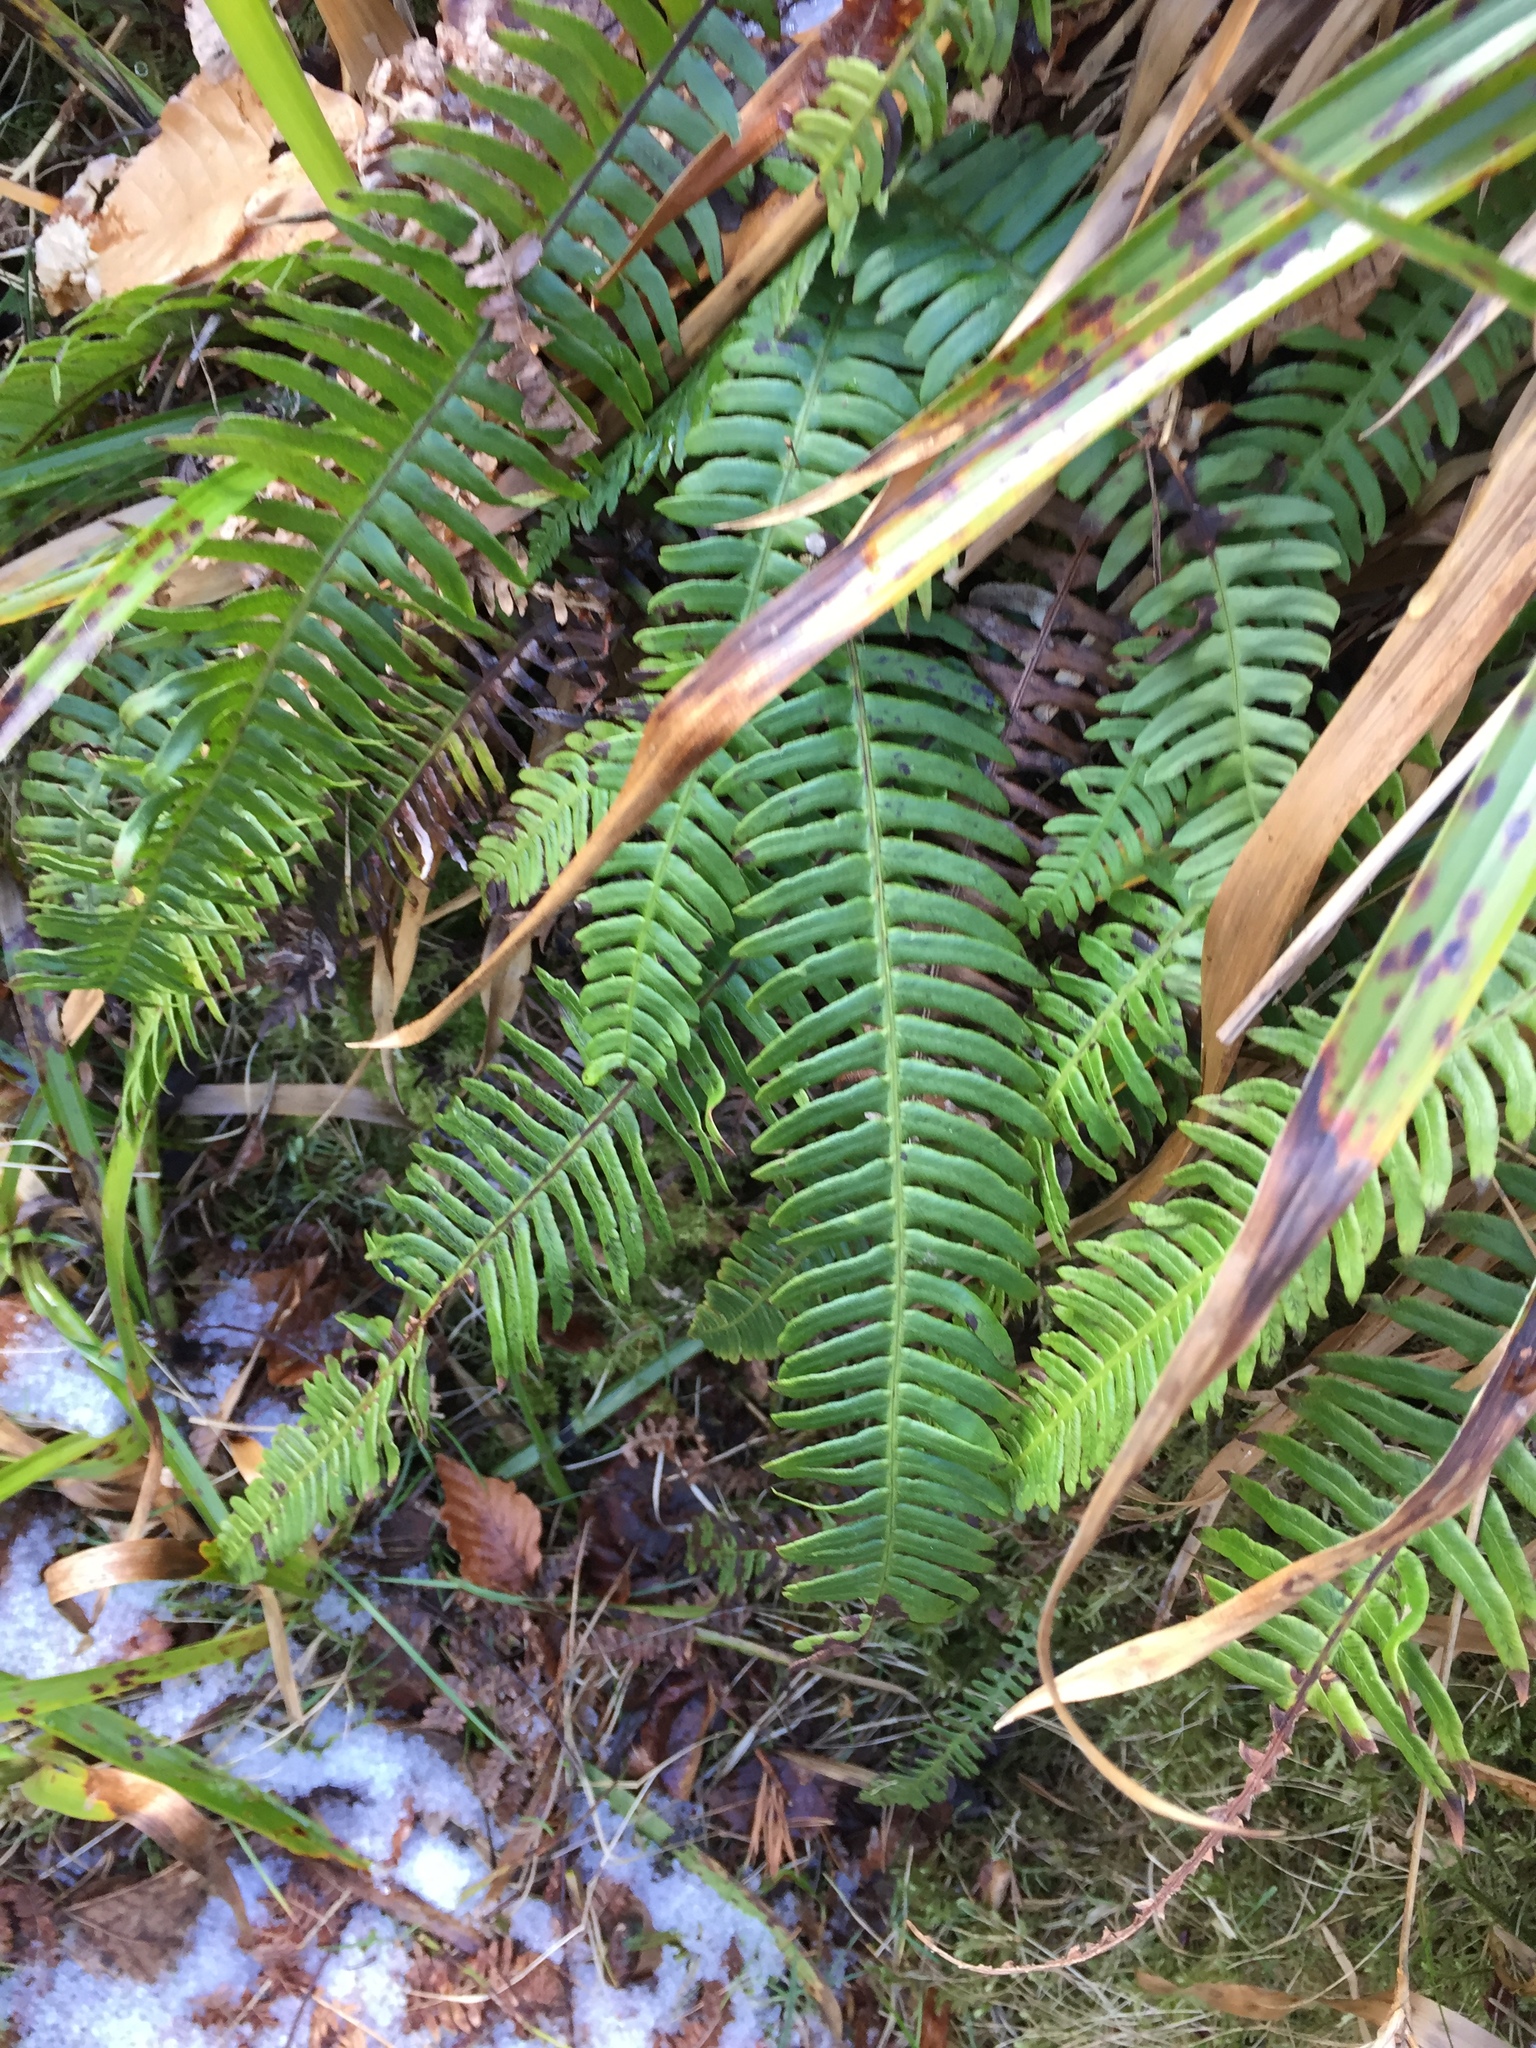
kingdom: Plantae
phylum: Tracheophyta
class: Polypodiopsida
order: Polypodiales
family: Blechnaceae
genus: Struthiopteris
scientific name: Struthiopteris spicant
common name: Deer fern
